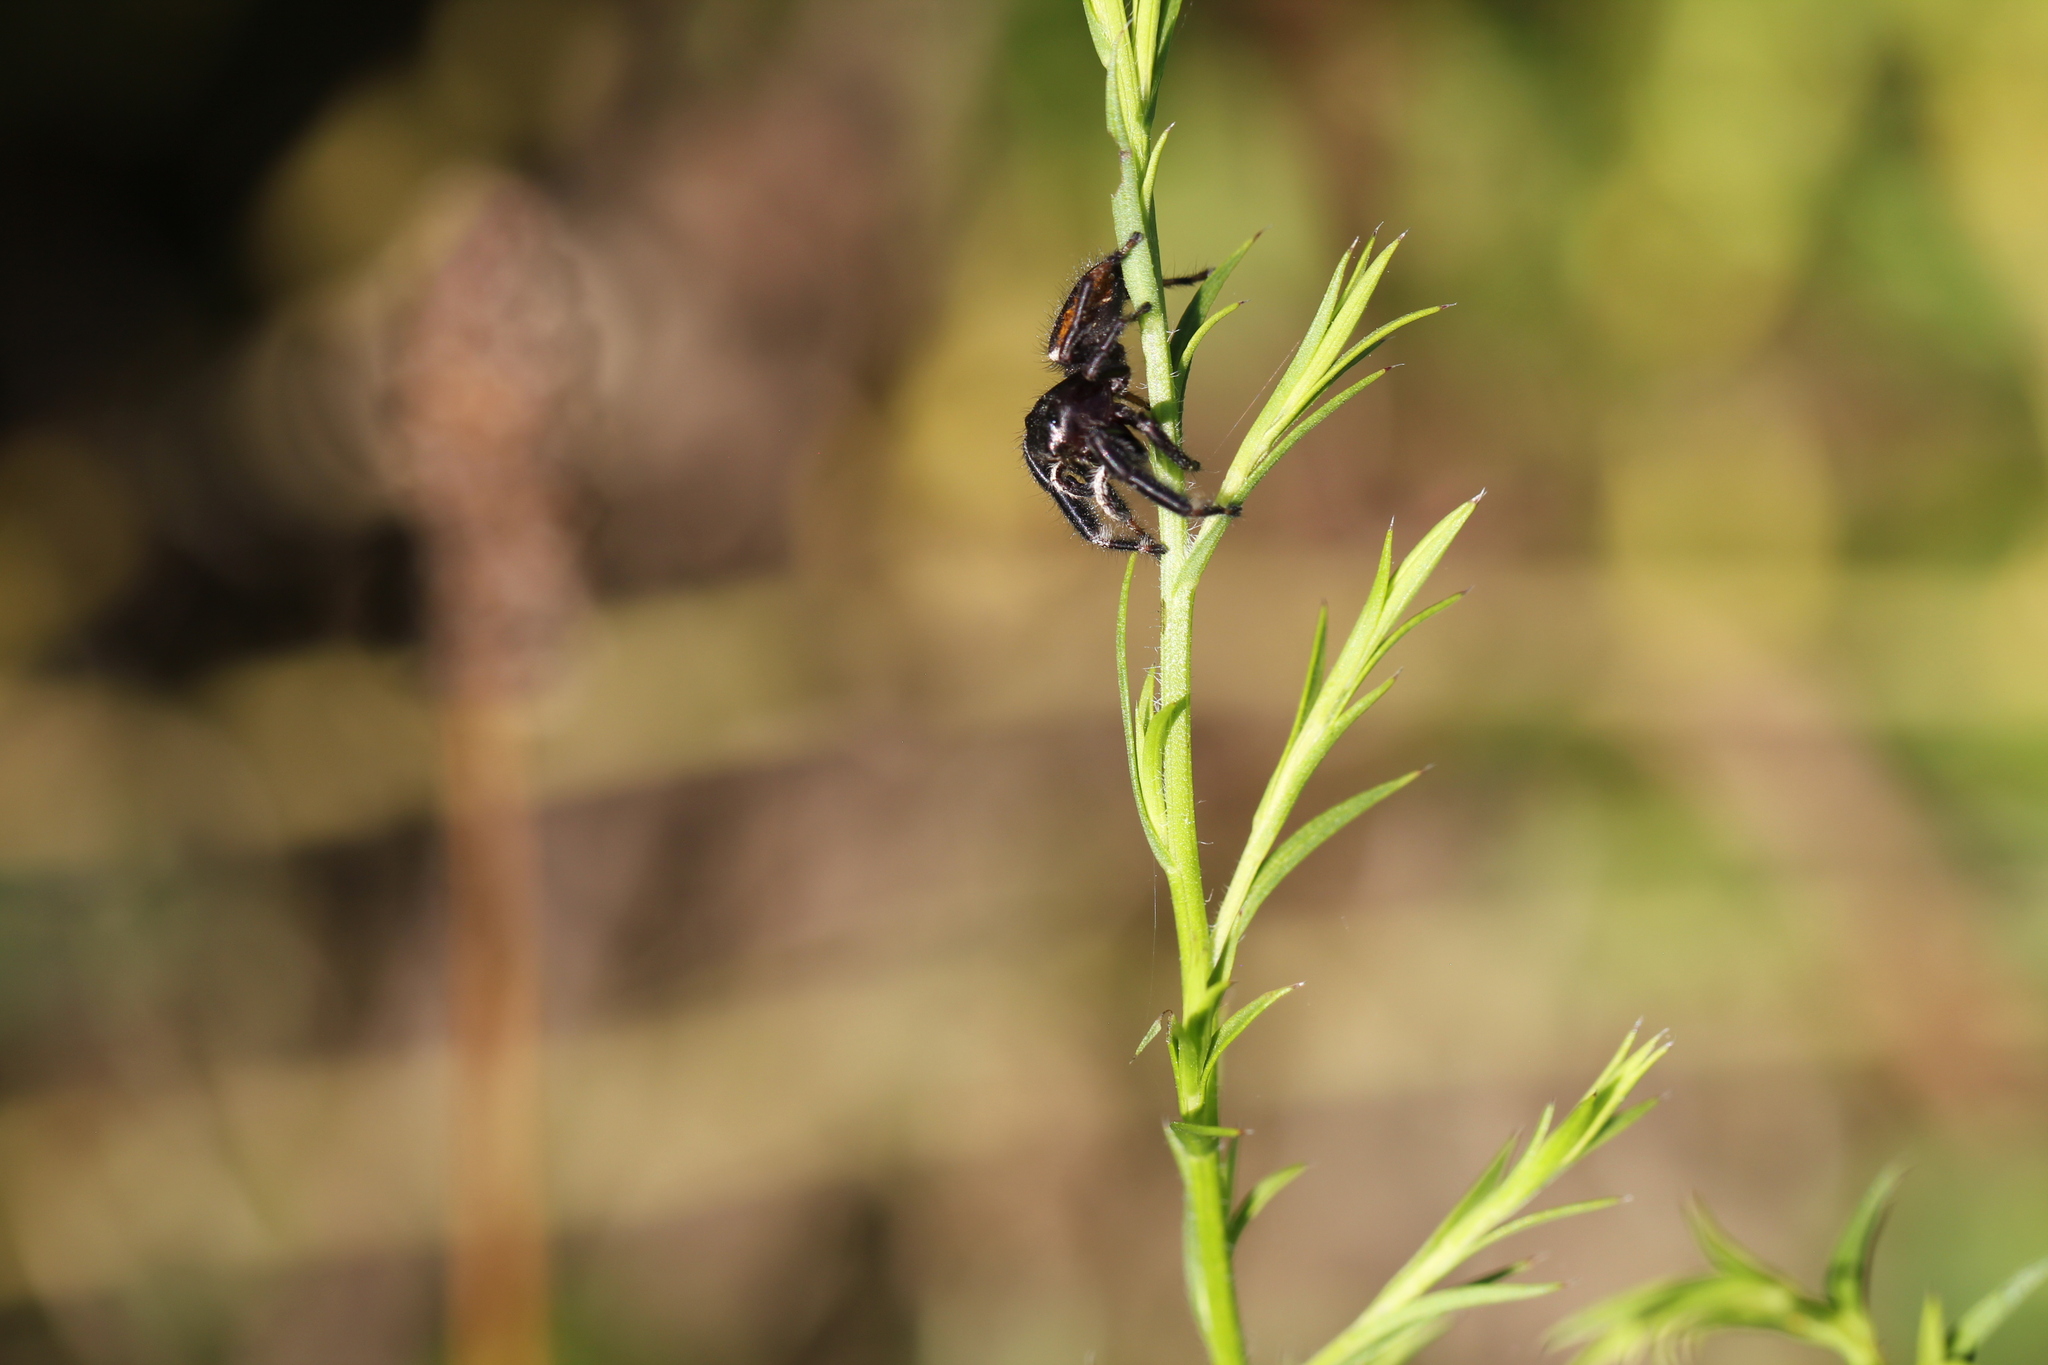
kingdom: Animalia
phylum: Arthropoda
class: Arachnida
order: Araneae
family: Salticidae
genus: Phidippus
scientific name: Phidippus clarus
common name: Brilliant jumping spider
